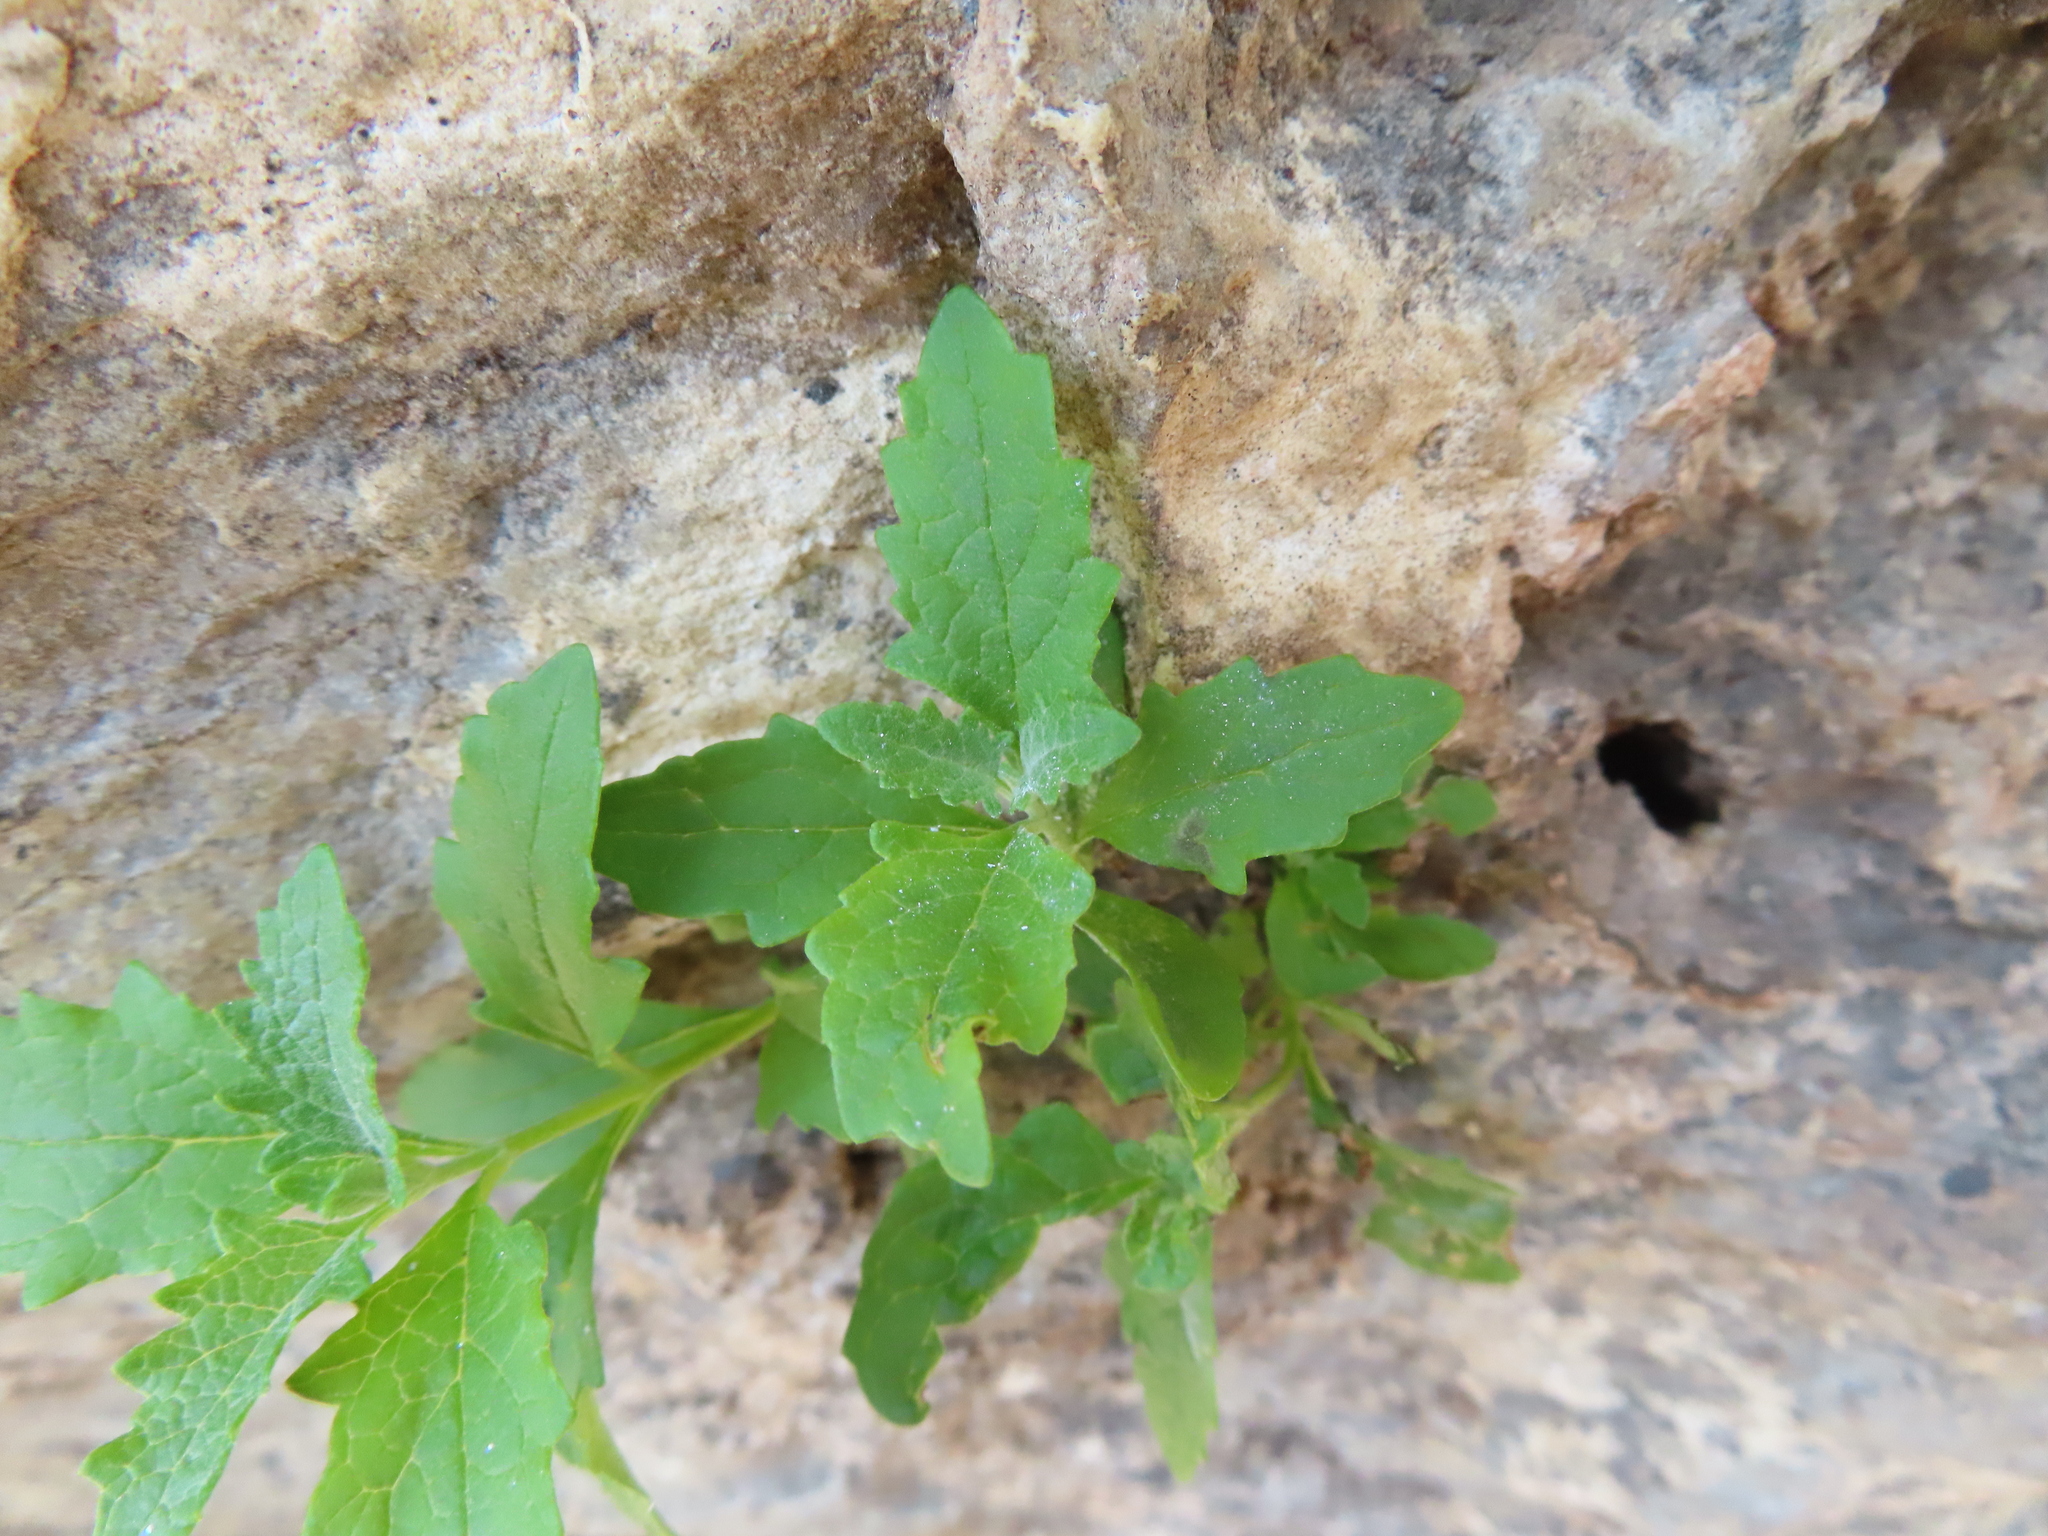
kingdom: Plantae
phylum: Tracheophyta
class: Magnoliopsida
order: Lamiales
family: Scrophulariaceae
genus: Buddleja
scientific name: Buddleja racemosa
